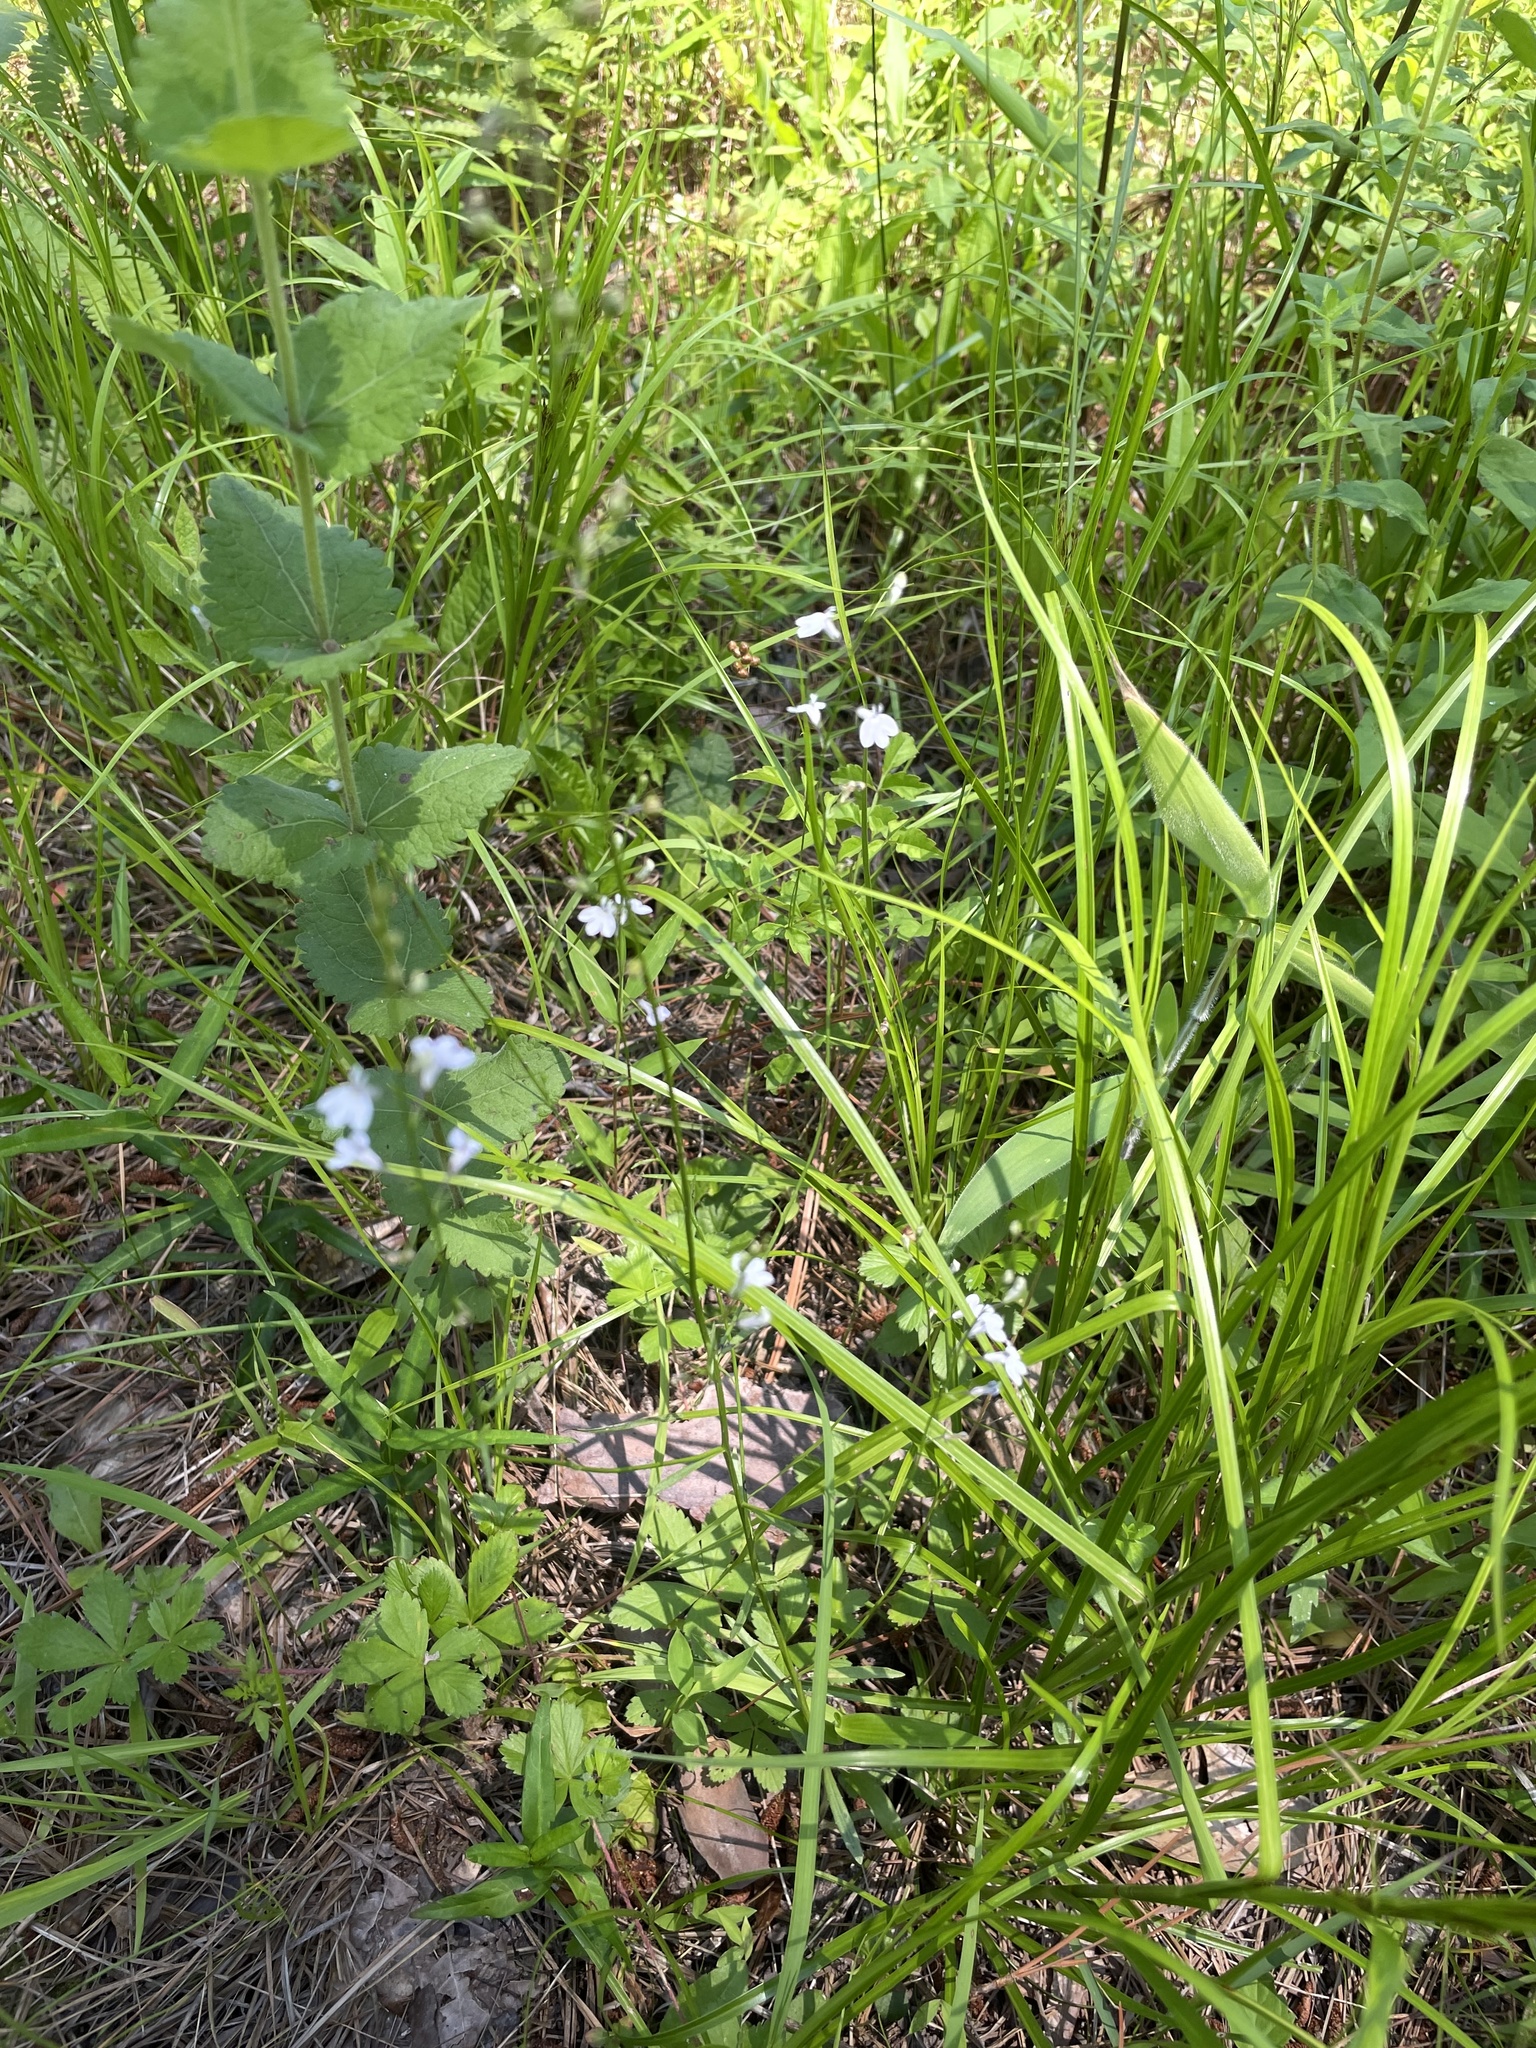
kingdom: Plantae
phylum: Tracheophyta
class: Magnoliopsida
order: Asterales
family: Campanulaceae
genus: Lobelia
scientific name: Lobelia nuttallii
